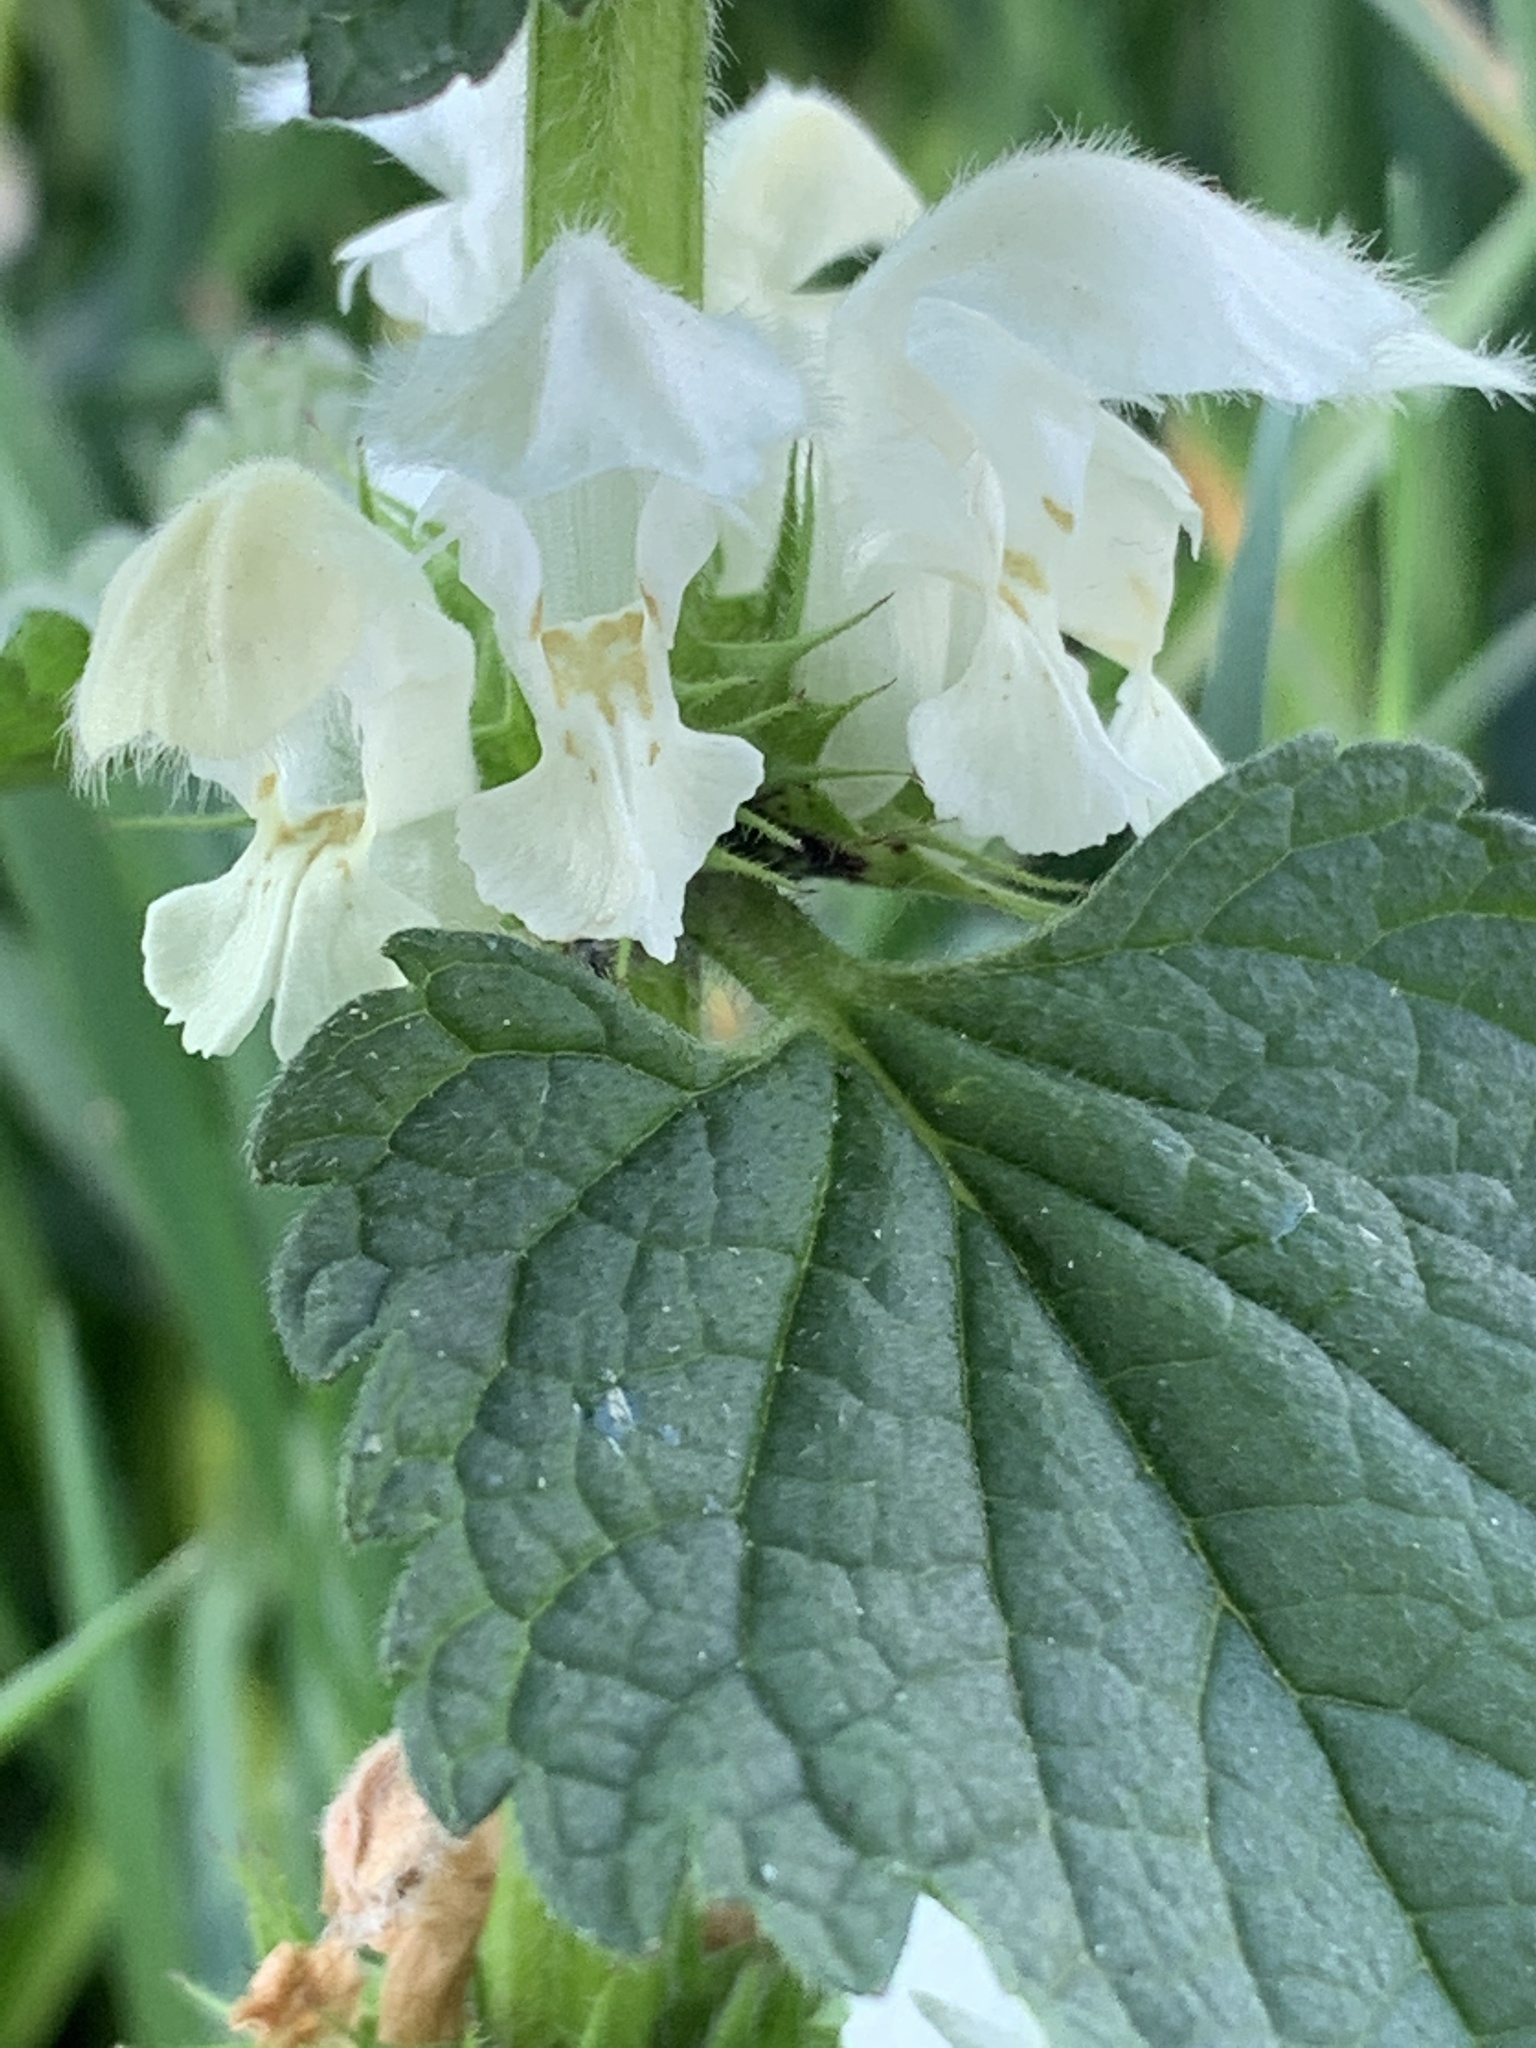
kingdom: Plantae
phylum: Tracheophyta
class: Magnoliopsida
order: Lamiales
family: Lamiaceae
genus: Lamium
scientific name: Lamium album
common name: White dead-nettle
